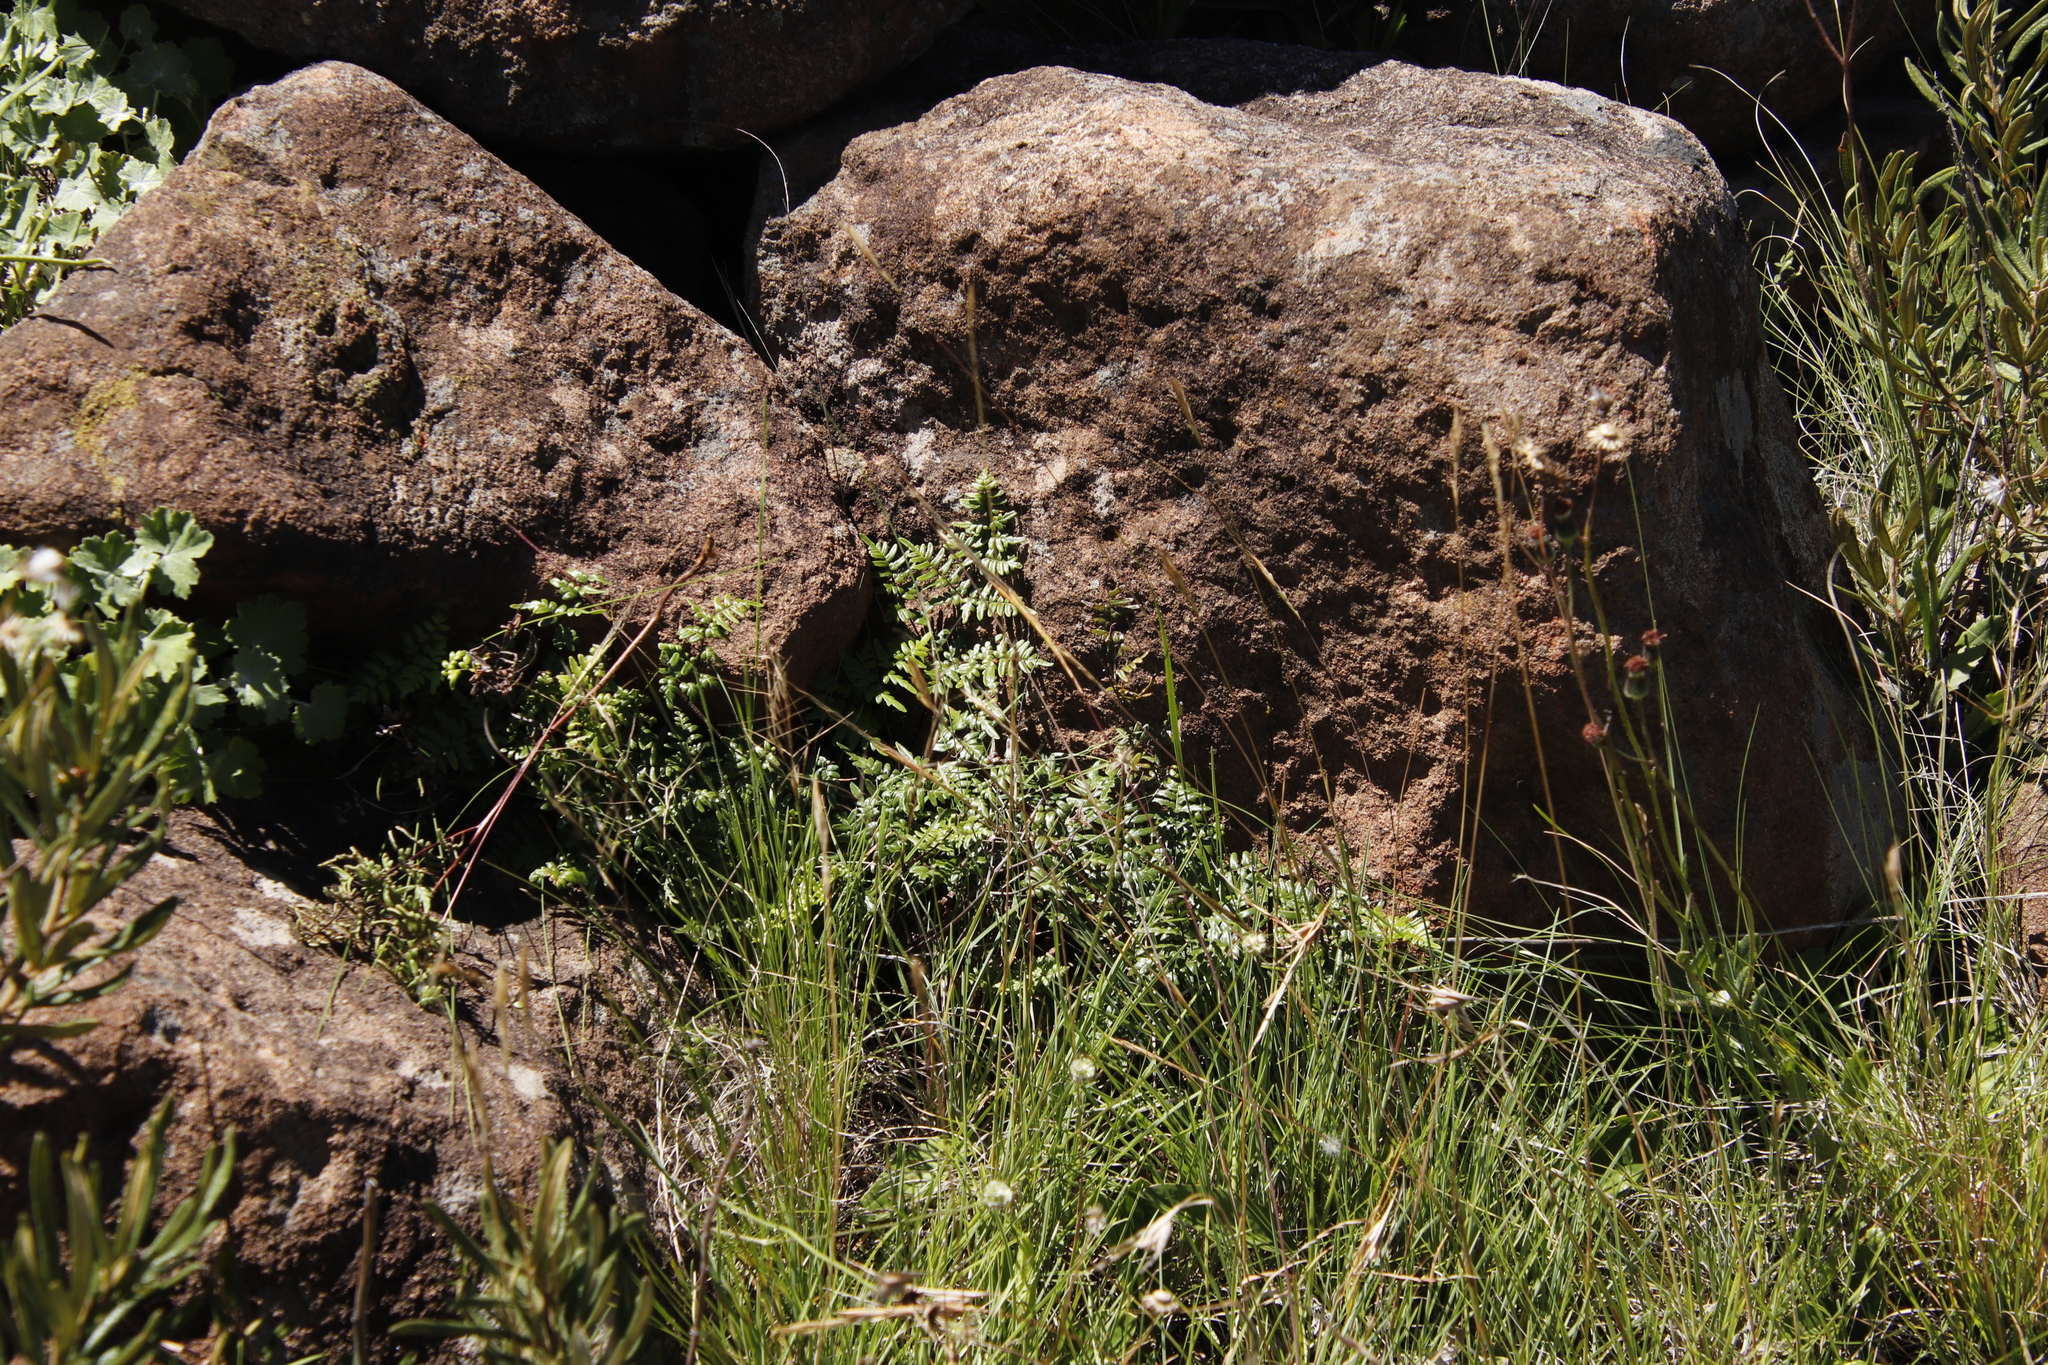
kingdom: Plantae
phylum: Tracheophyta
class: Polypodiopsida
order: Polypodiales
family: Pteridaceae
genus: Cheilanthes
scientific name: Cheilanthes quadripinnata
